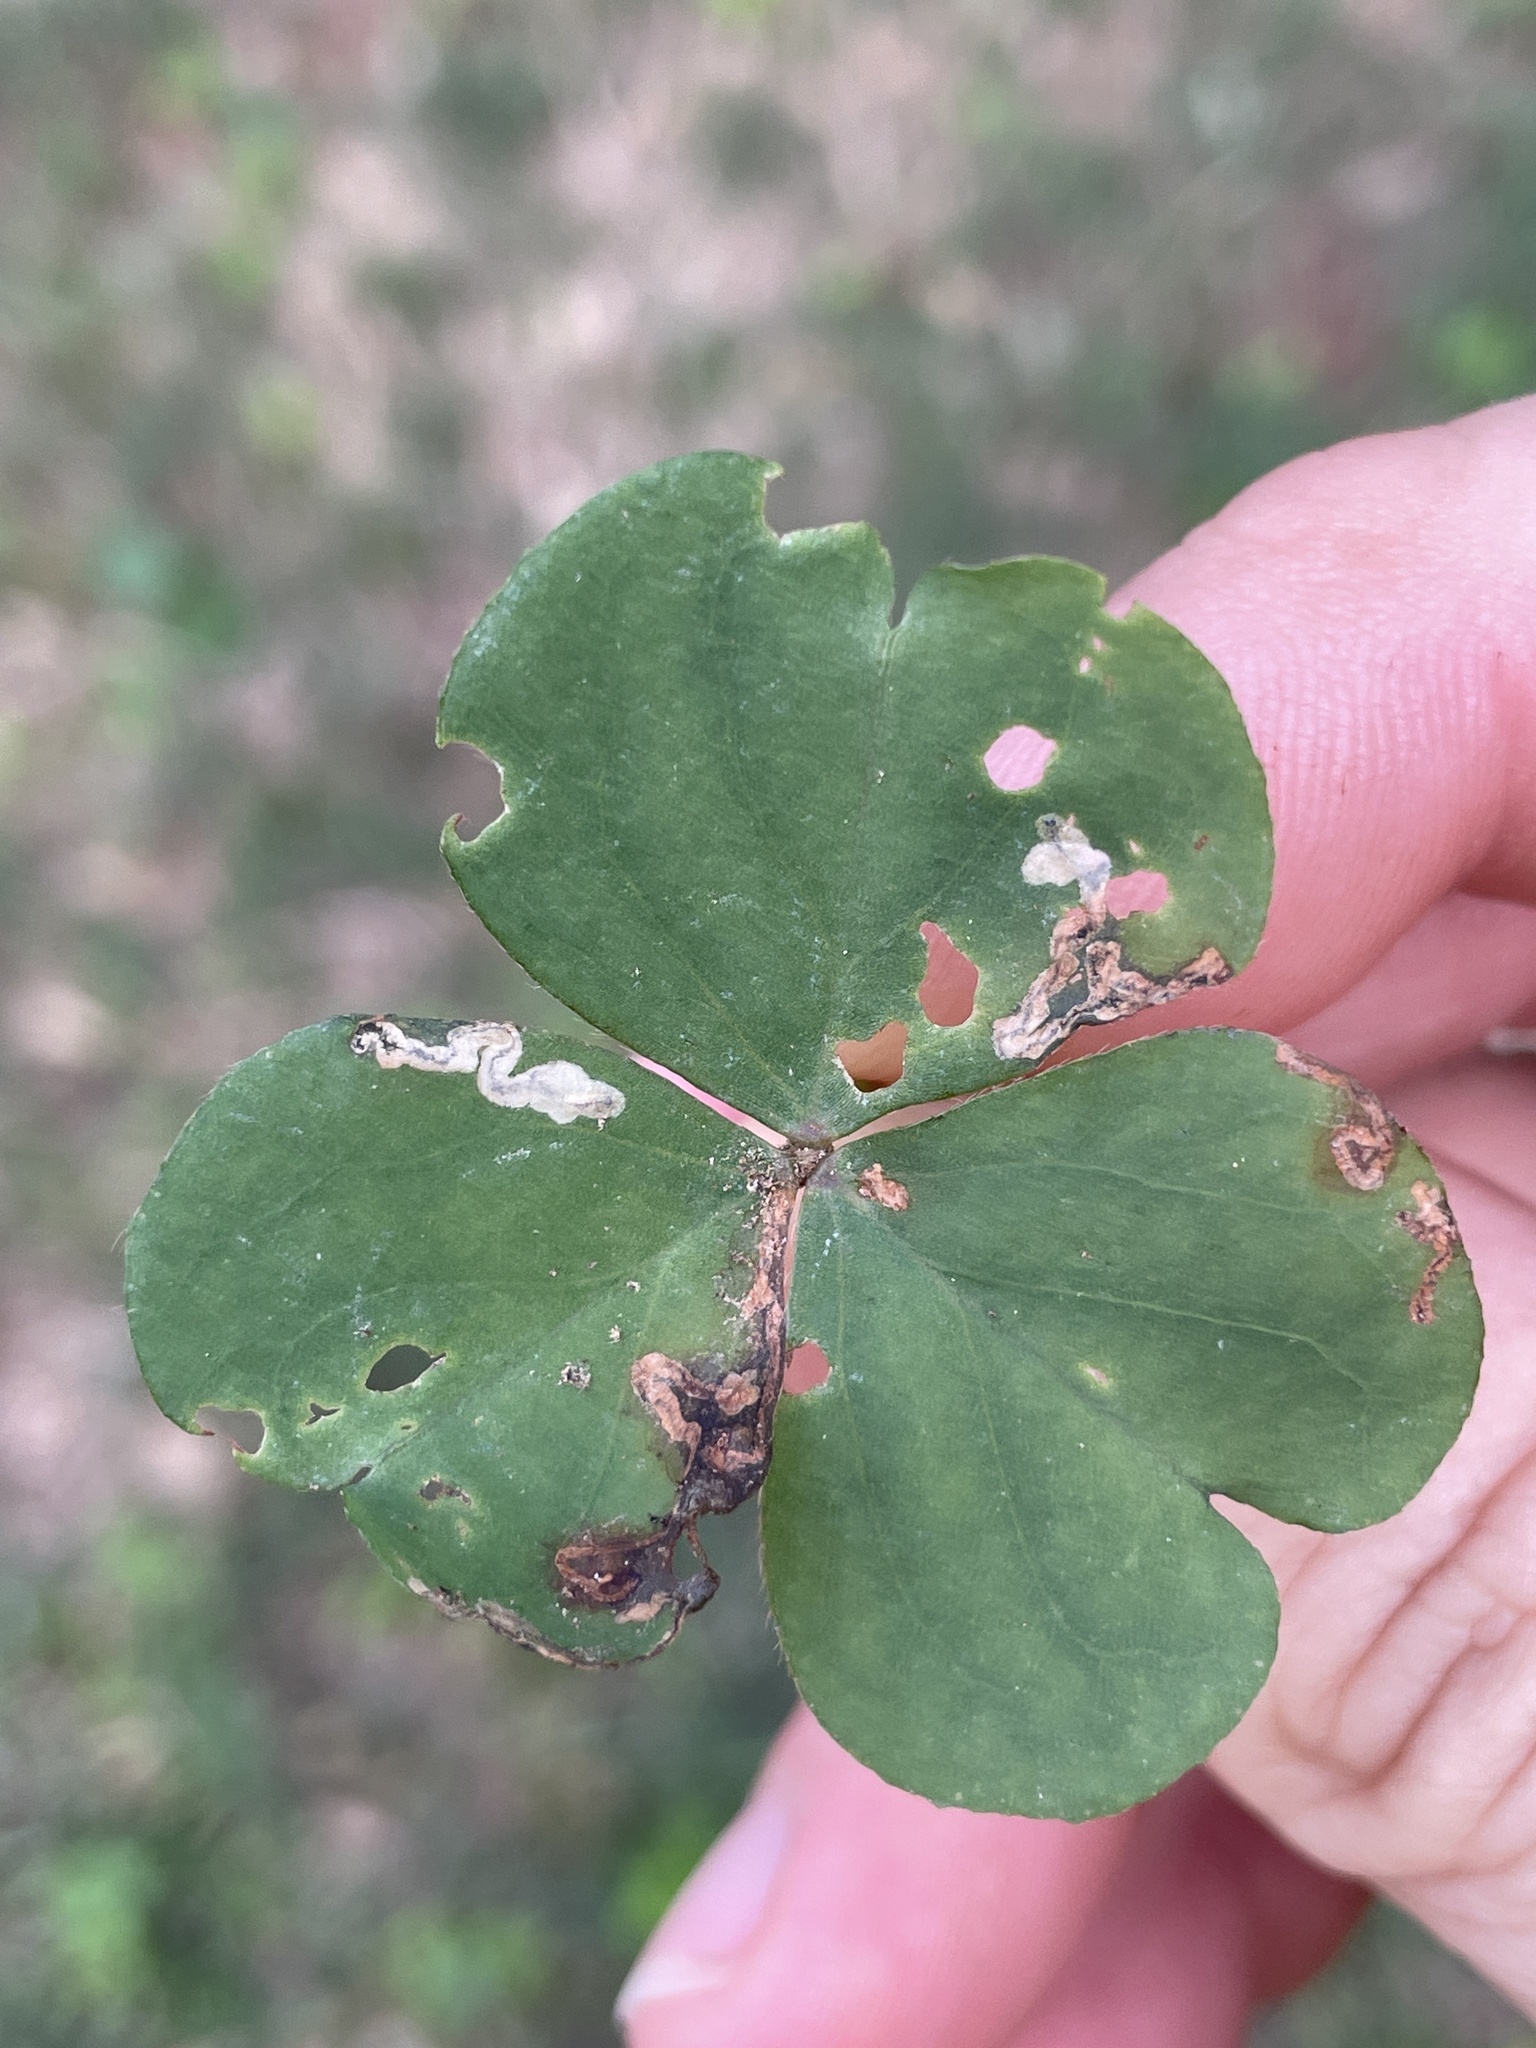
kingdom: Animalia
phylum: Arthropoda
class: Insecta
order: Coleoptera
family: Chrysomelidae
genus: Mantura
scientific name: Mantura floridana
